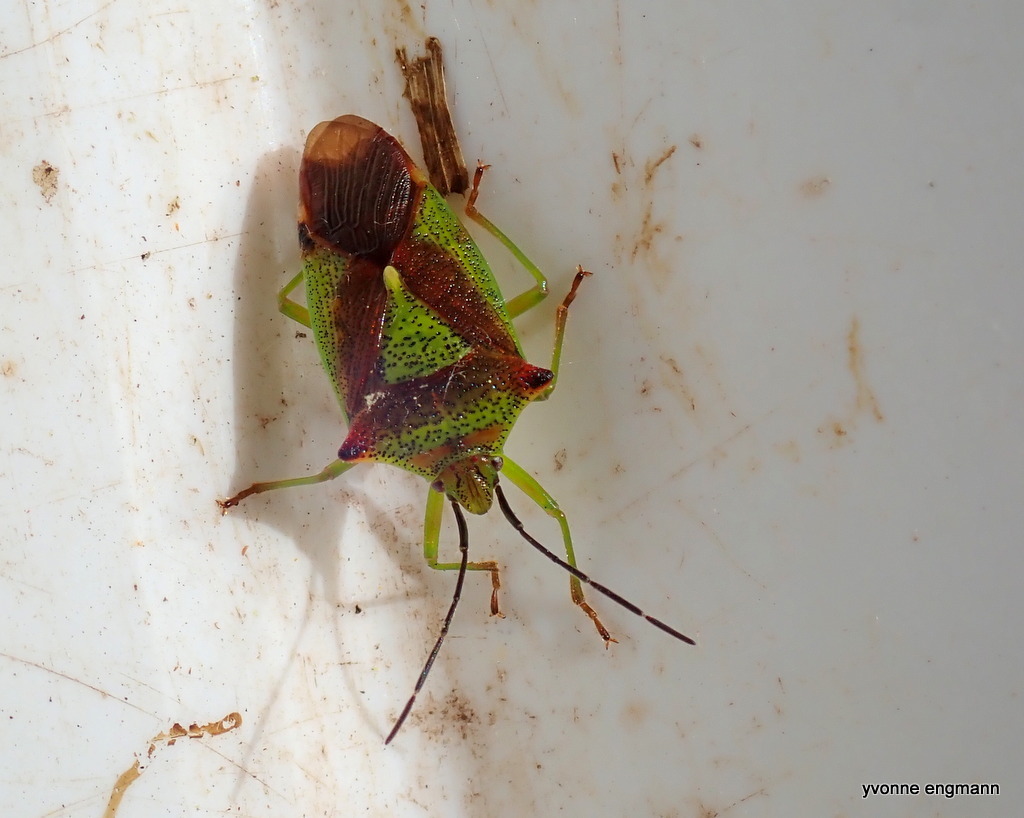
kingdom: Animalia
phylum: Arthropoda
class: Insecta
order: Hemiptera
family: Acanthosomatidae
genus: Acanthosoma
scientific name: Acanthosoma haemorrhoidale
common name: Hawthorn shieldbug
